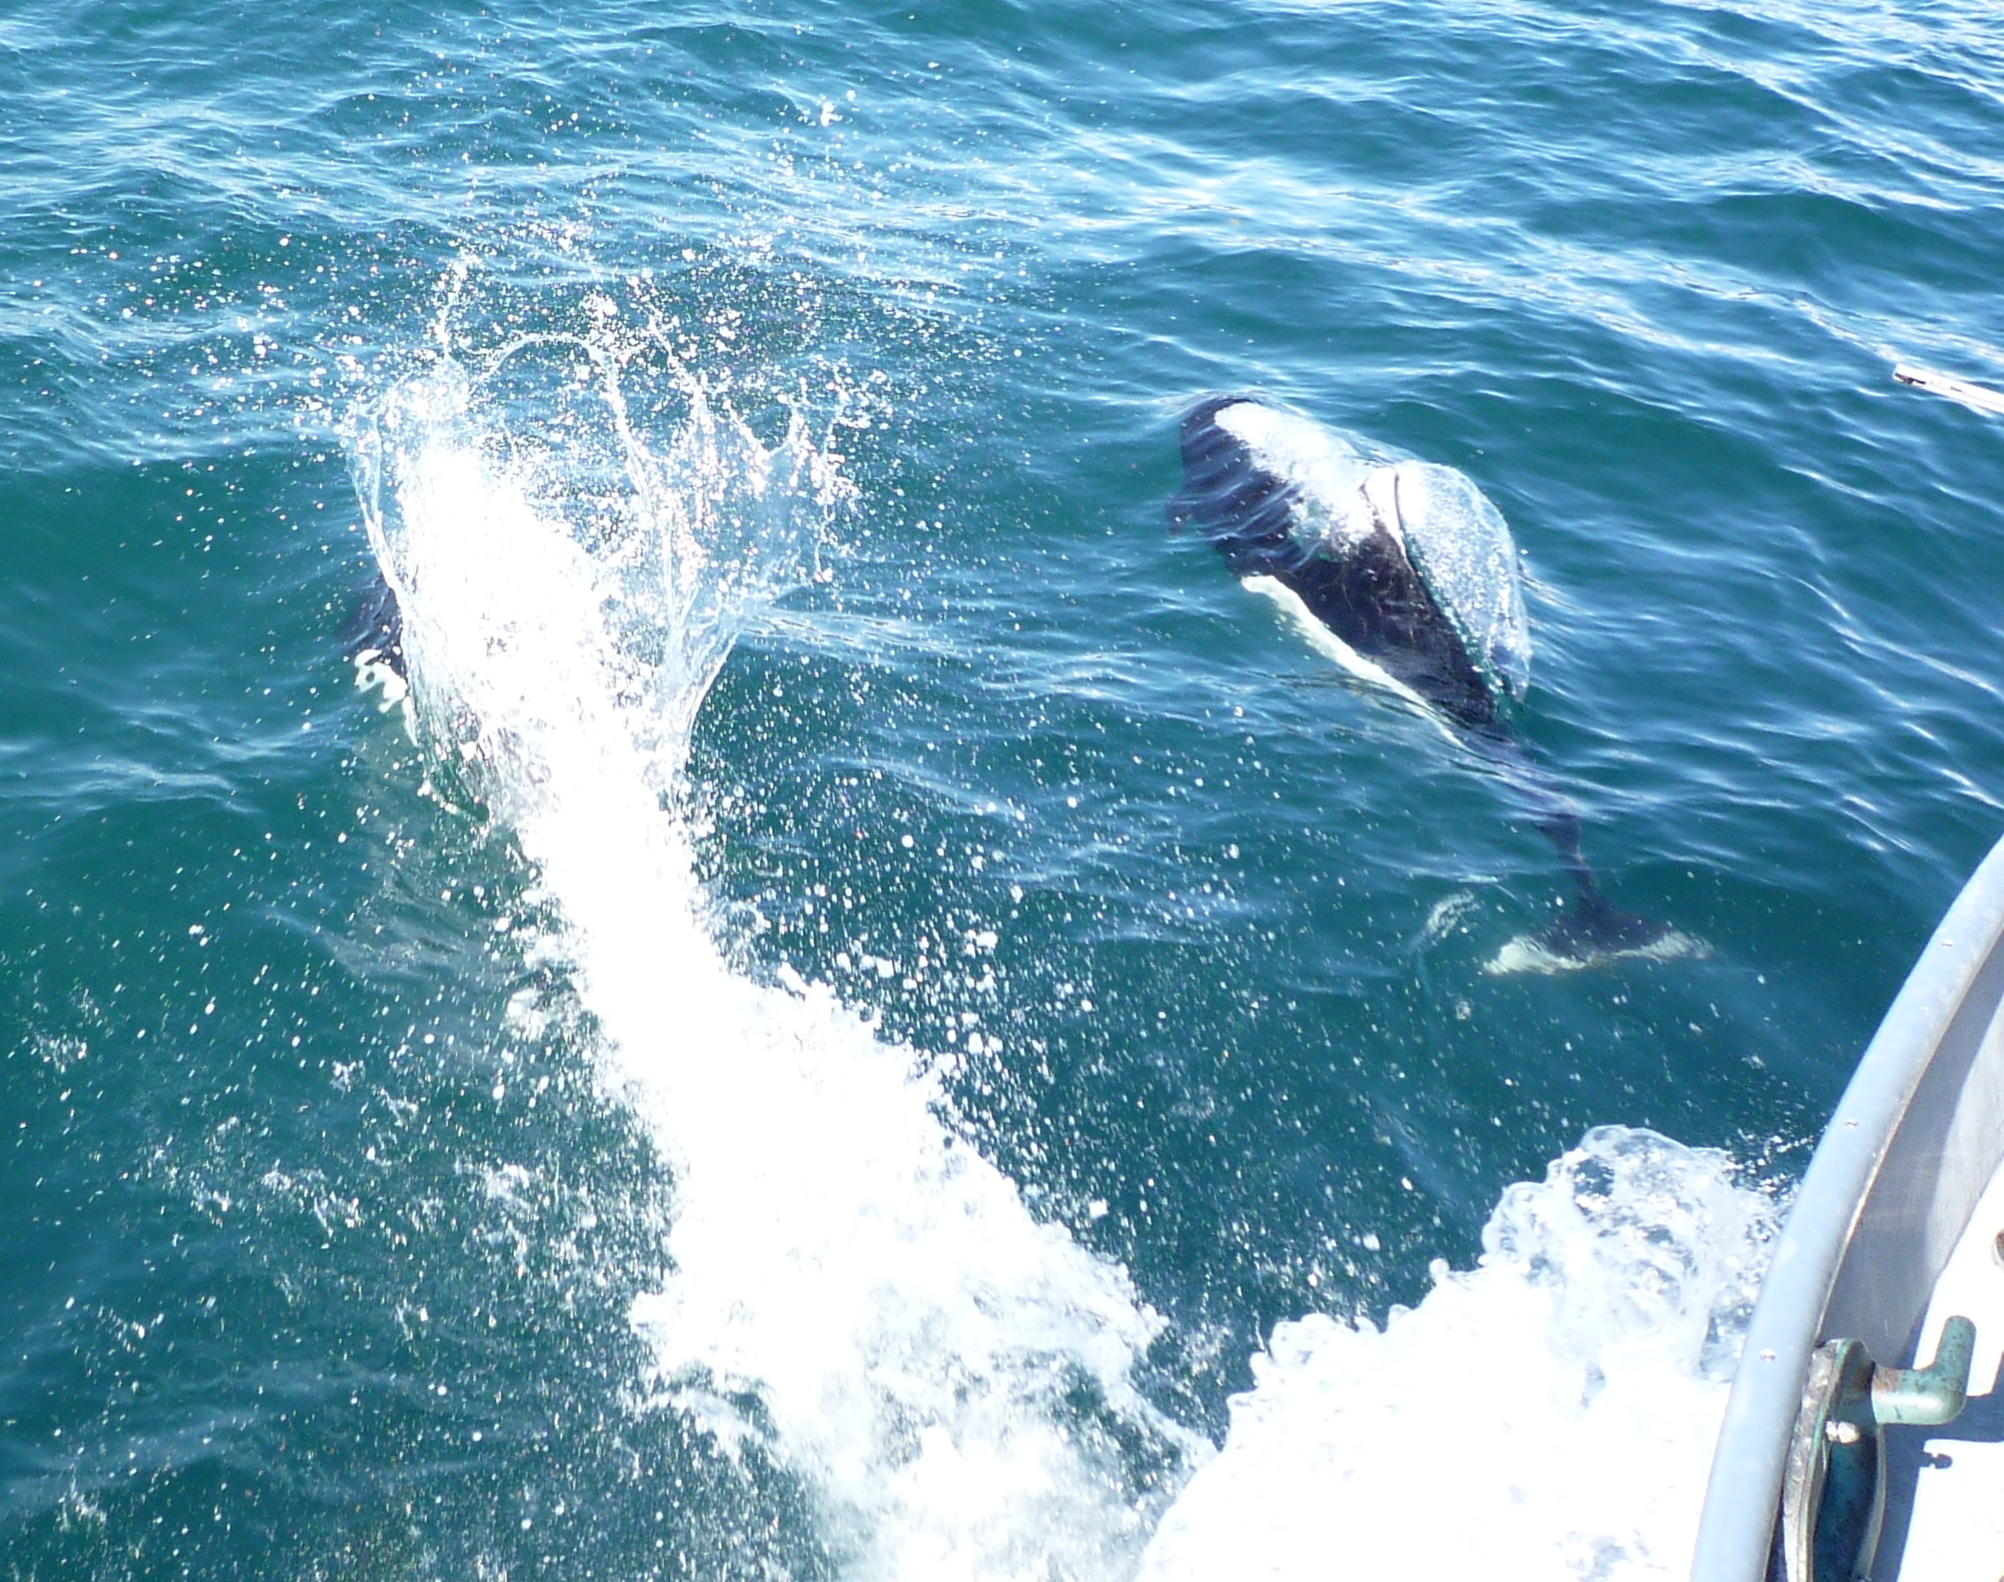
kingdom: Animalia
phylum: Chordata
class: Mammalia
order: Cetacea
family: Phocoenidae
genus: Phocoenoides
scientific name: Phocoenoides dalli
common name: Dall's porpoise
